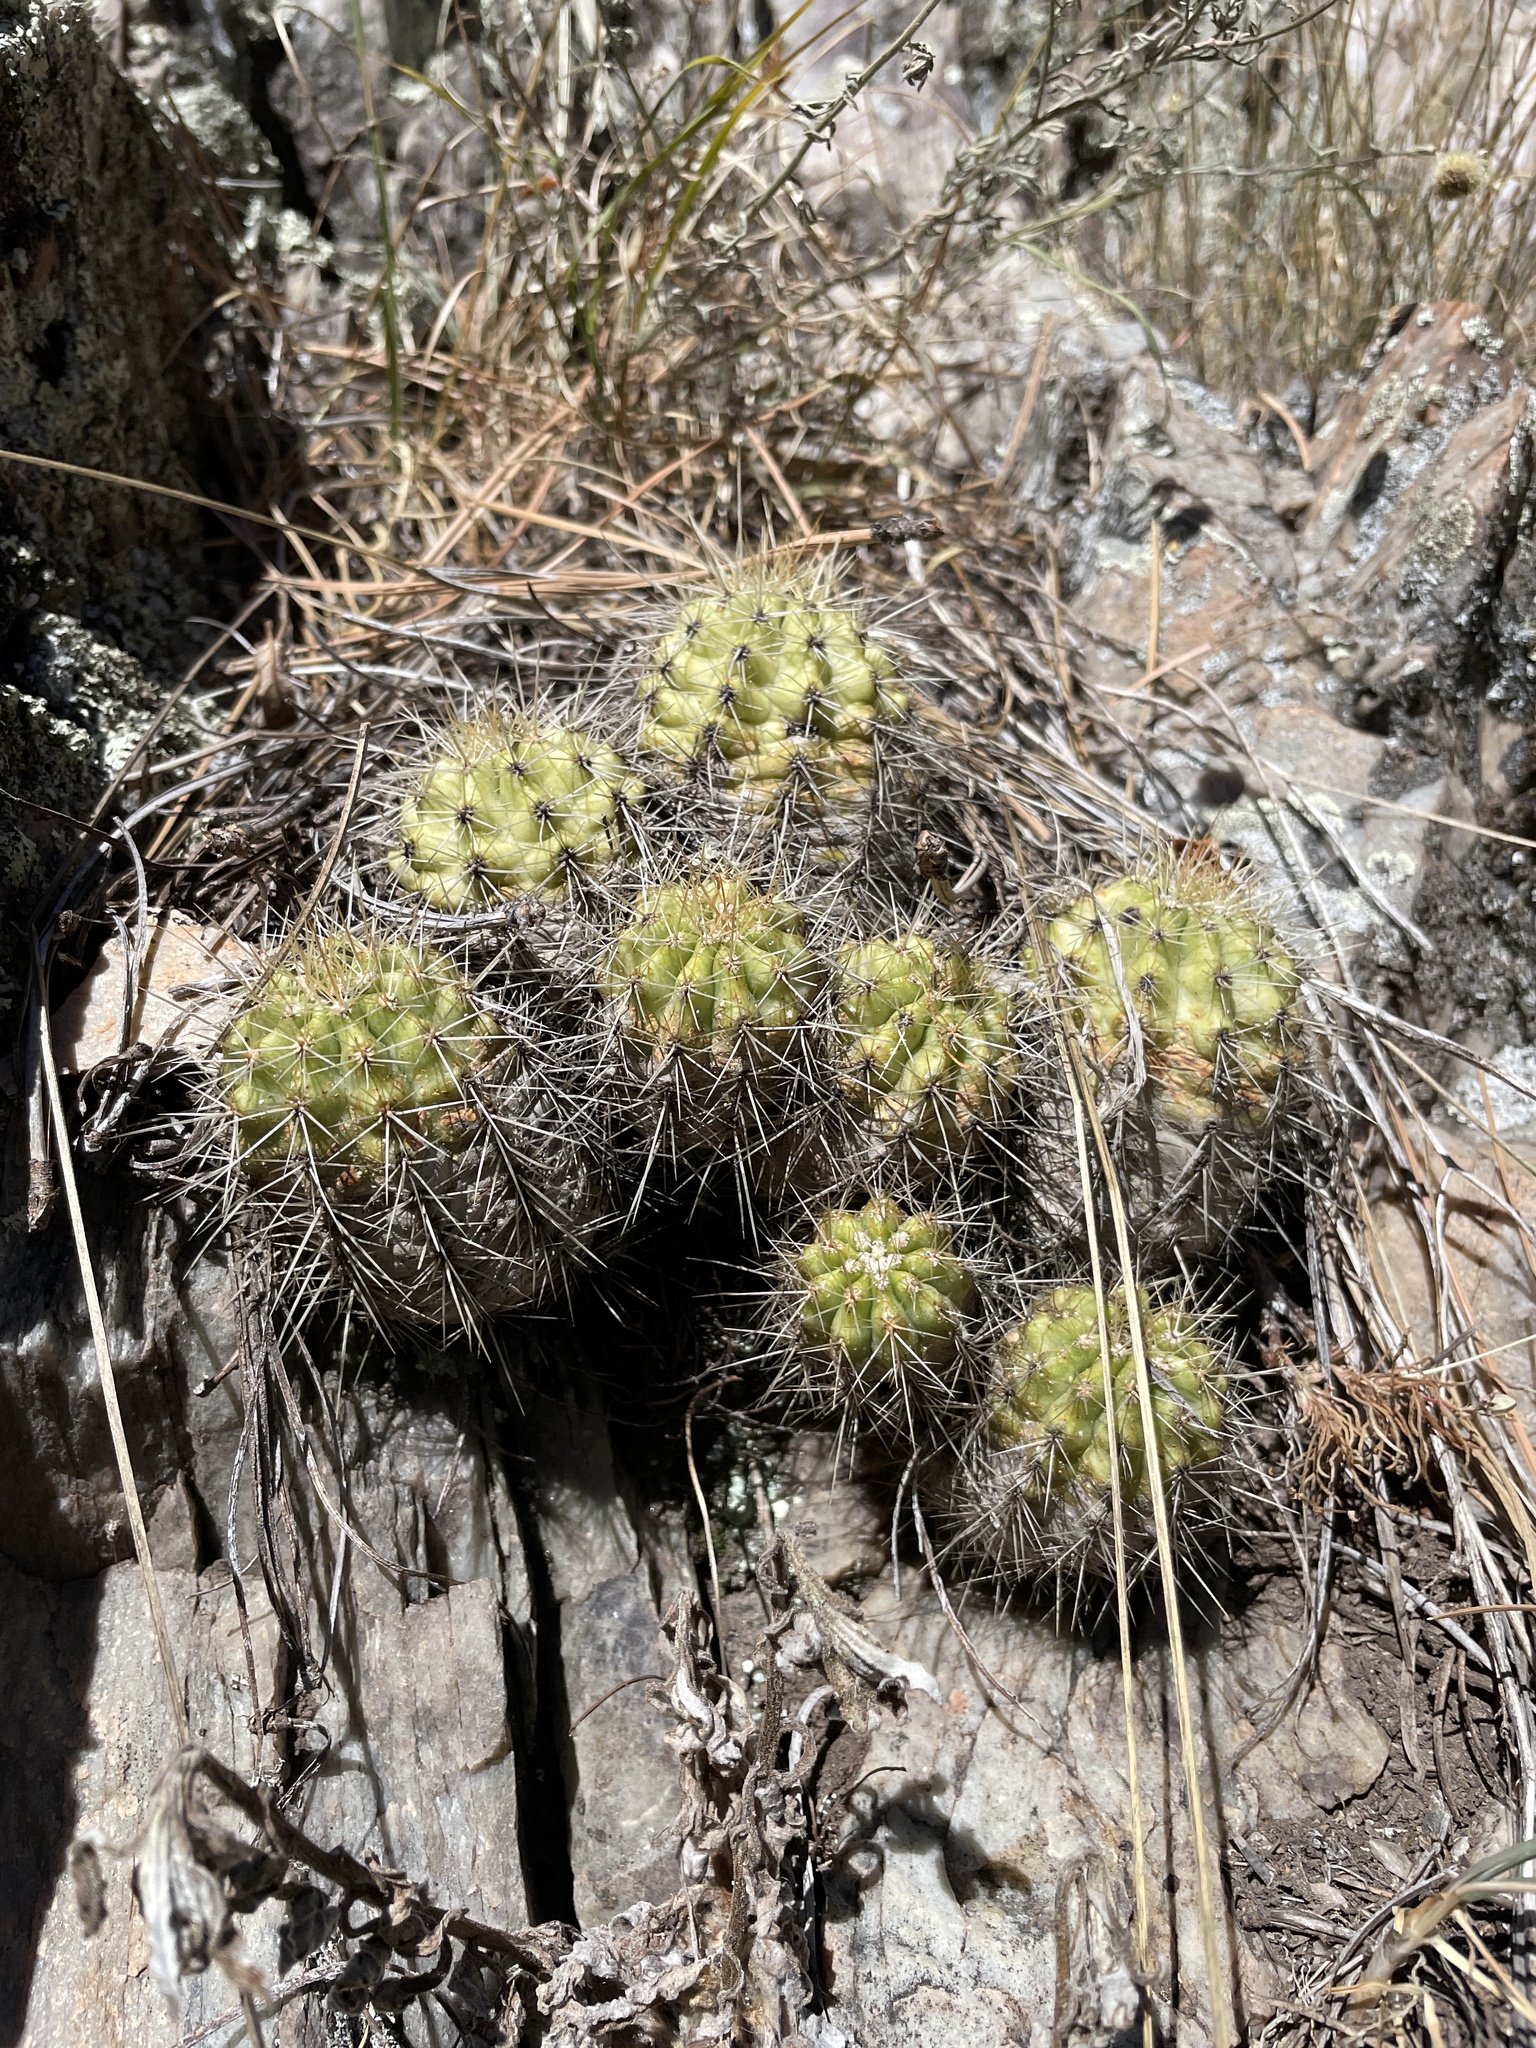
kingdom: Plantae
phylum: Tracheophyta
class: Magnoliopsida
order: Caryophyllales
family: Cactaceae
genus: Echinocereus
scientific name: Echinocereus coccineus
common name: Scarlet hedgehog cactus
